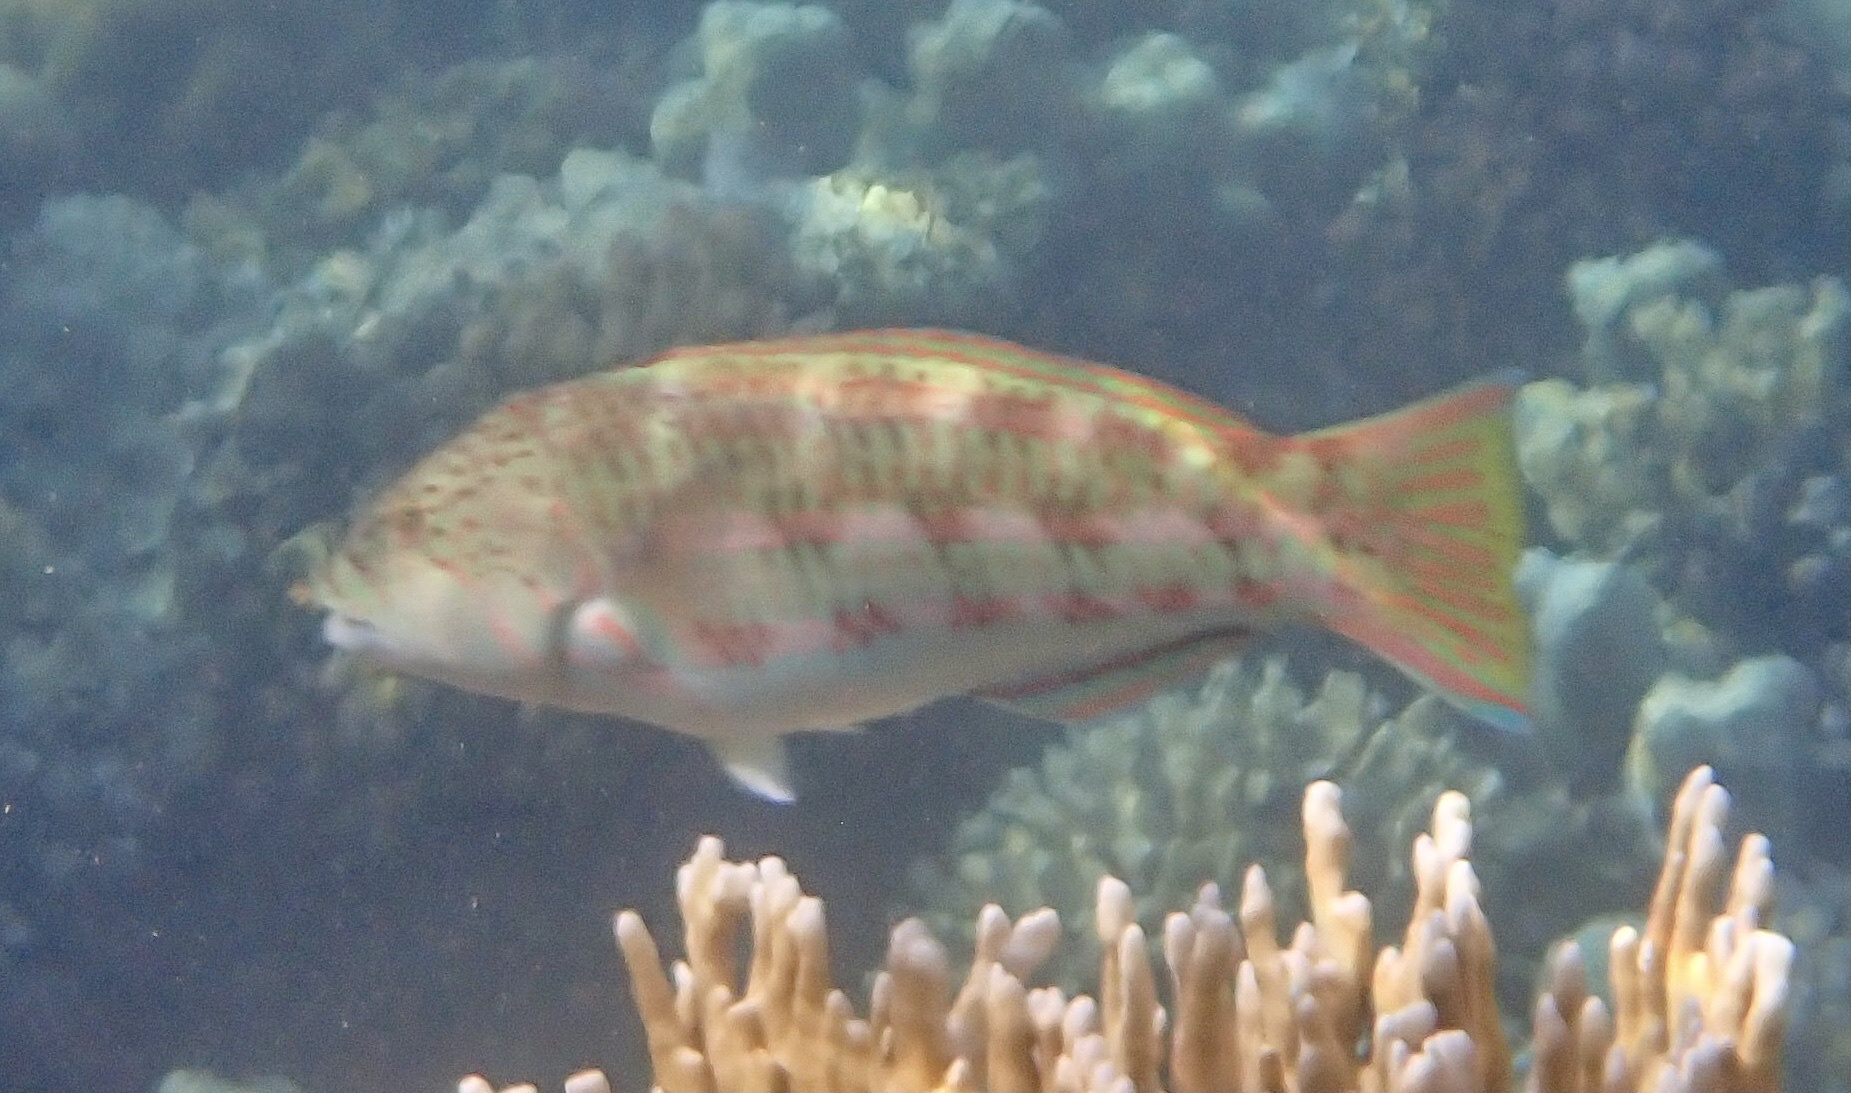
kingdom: Animalia
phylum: Chordata
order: Perciformes
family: Labridae
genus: Thalassoma
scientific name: Thalassoma purpureum
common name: Parrotfish
